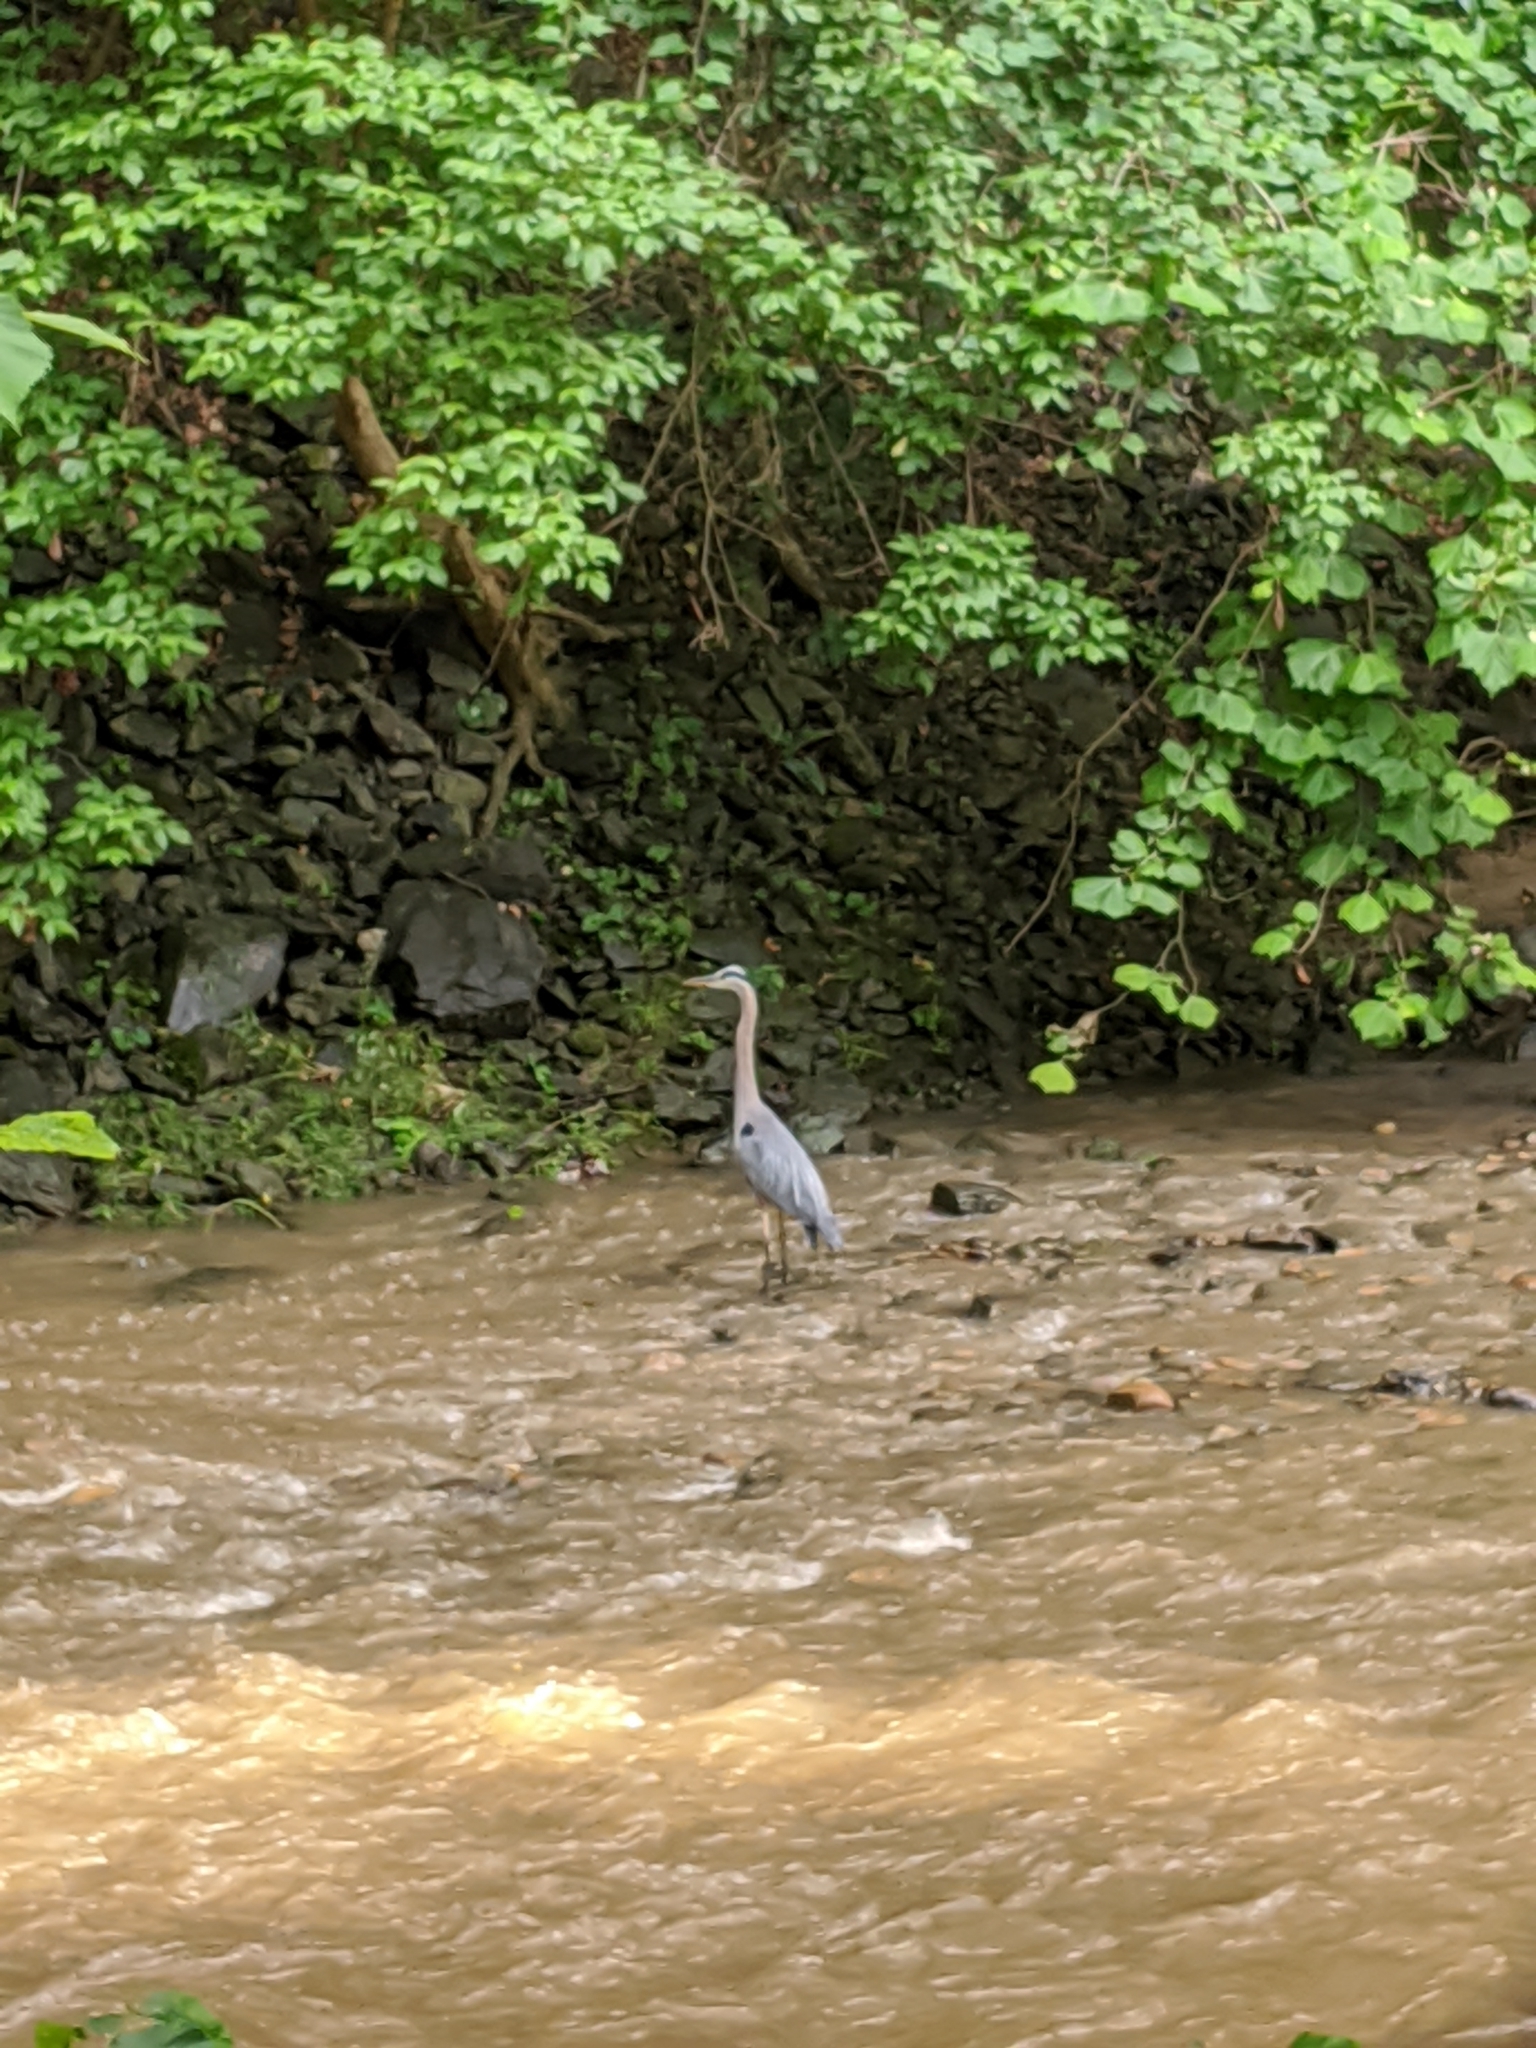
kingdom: Animalia
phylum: Chordata
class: Aves
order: Pelecaniformes
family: Ardeidae
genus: Ardea
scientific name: Ardea herodias
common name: Great blue heron
